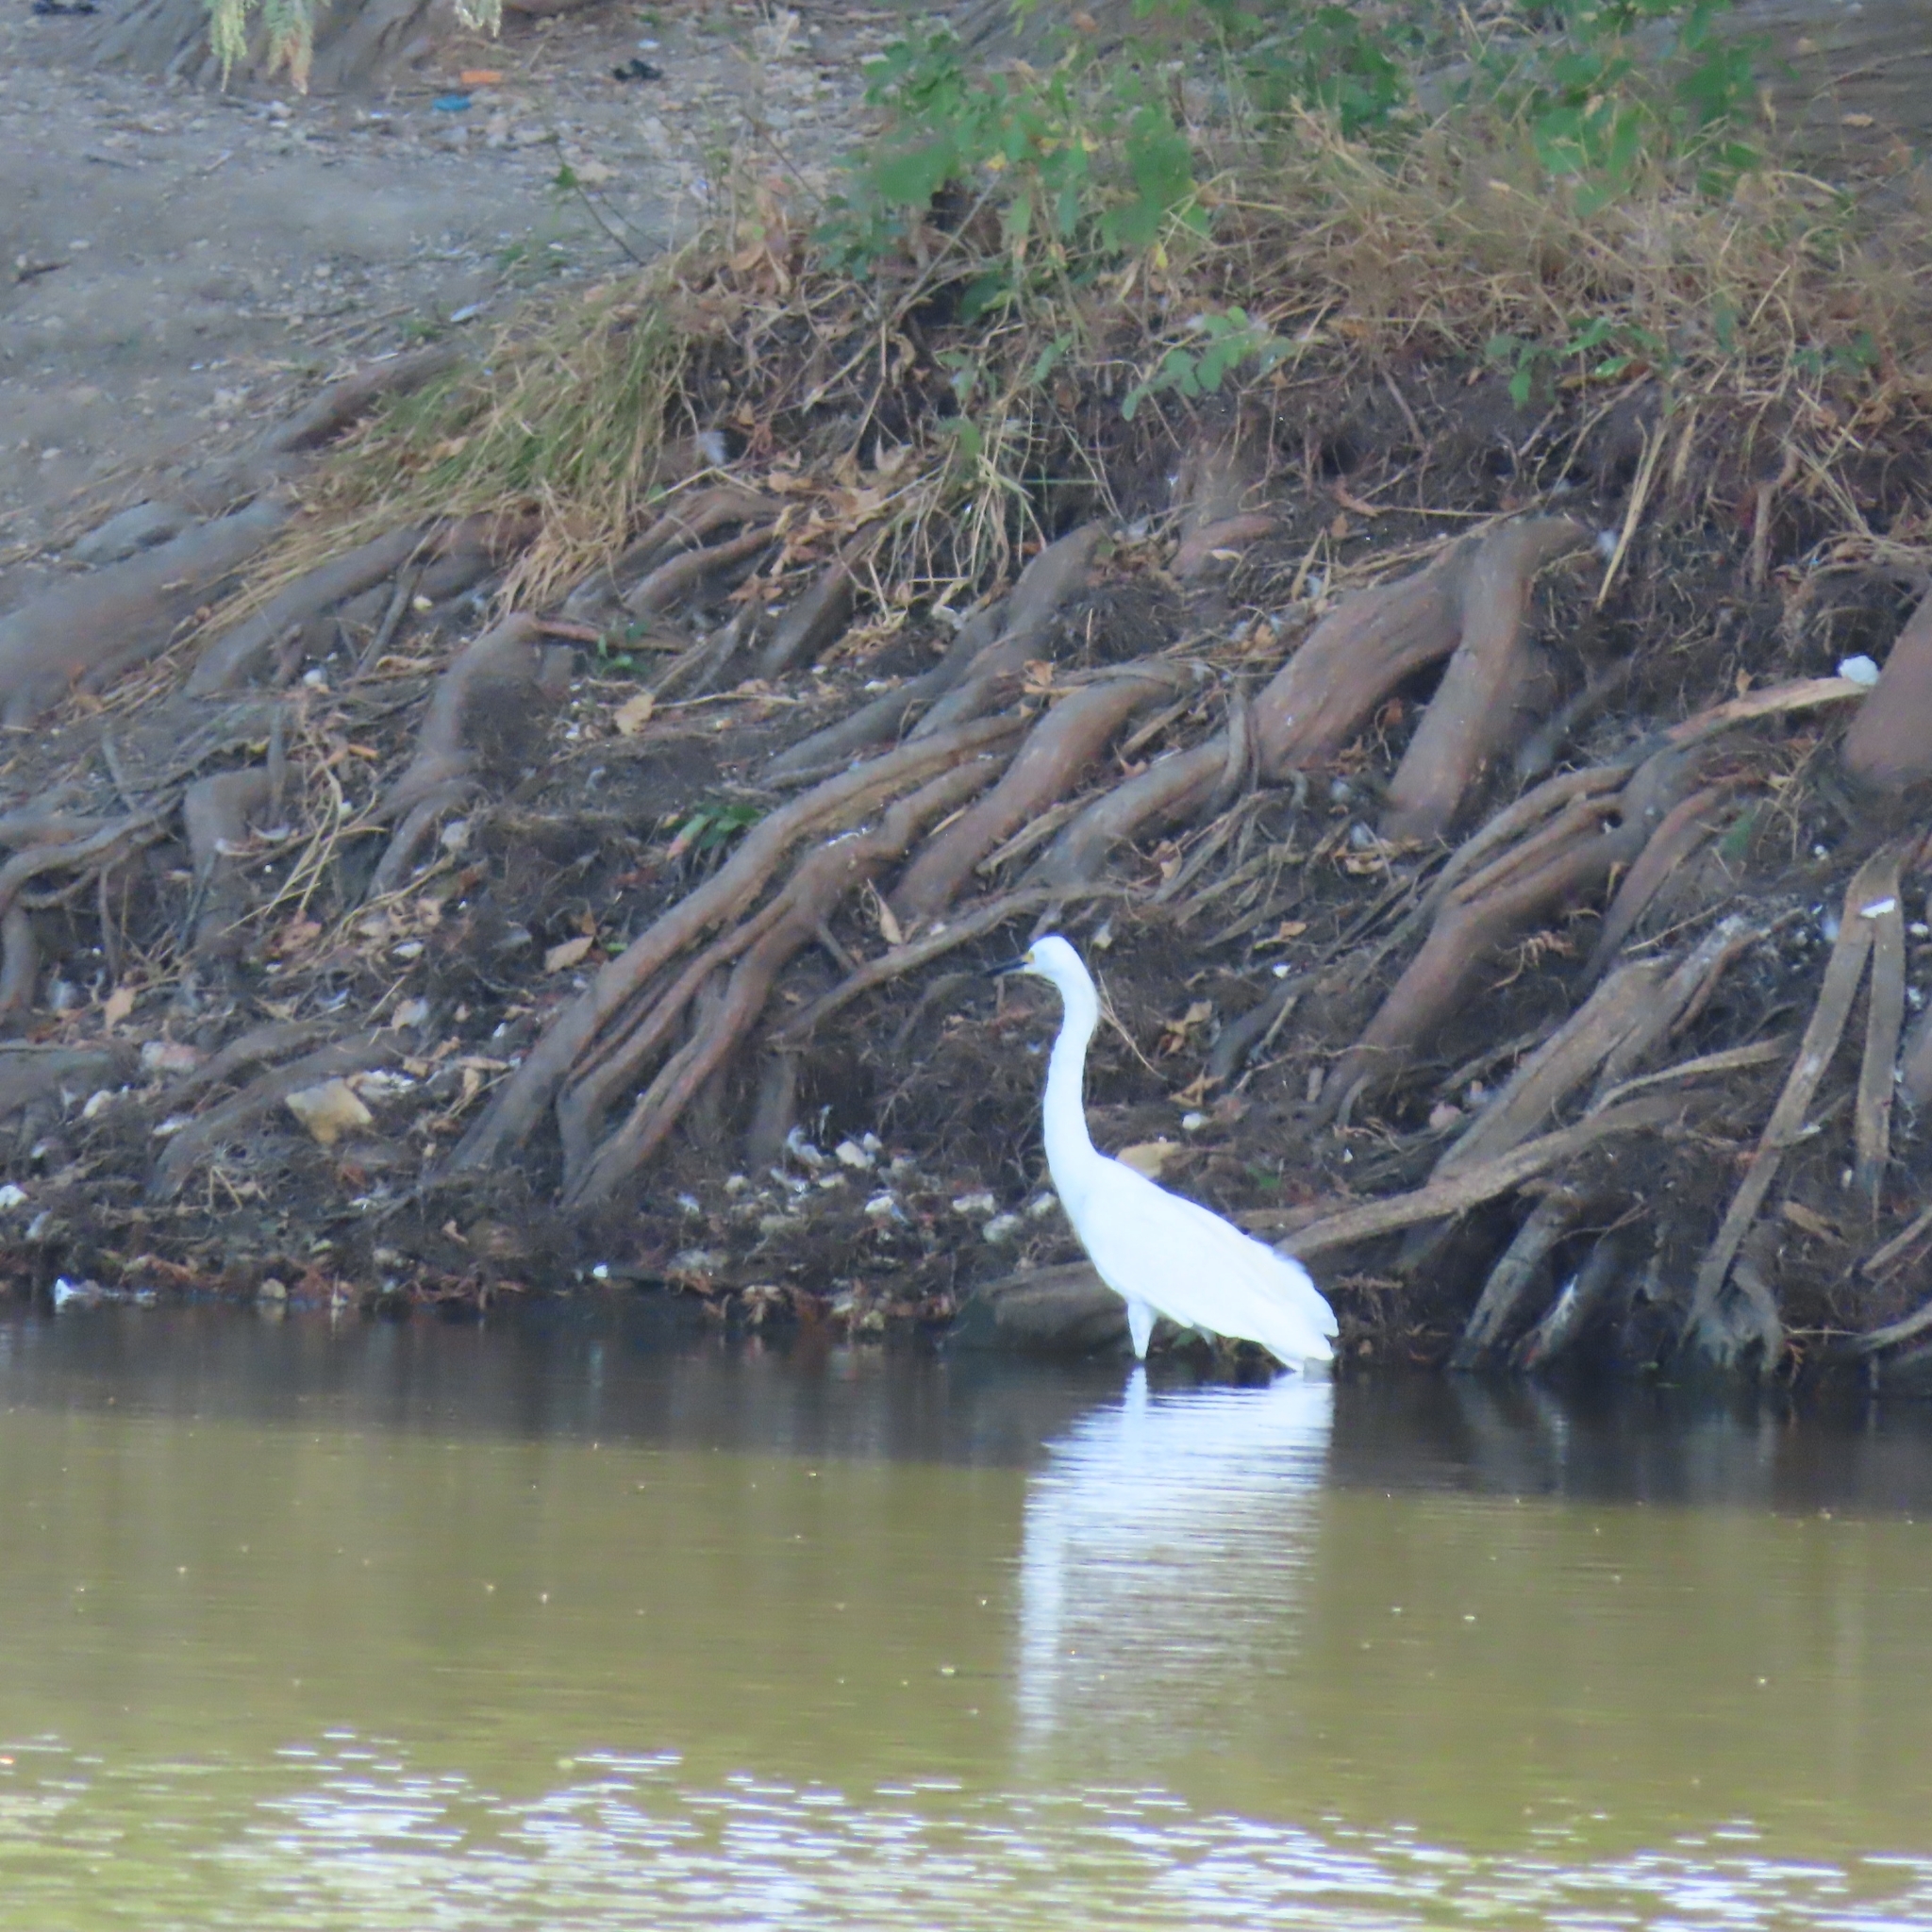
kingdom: Animalia
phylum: Chordata
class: Aves
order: Pelecaniformes
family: Ardeidae
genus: Egretta
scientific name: Egretta thula
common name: Snowy egret
